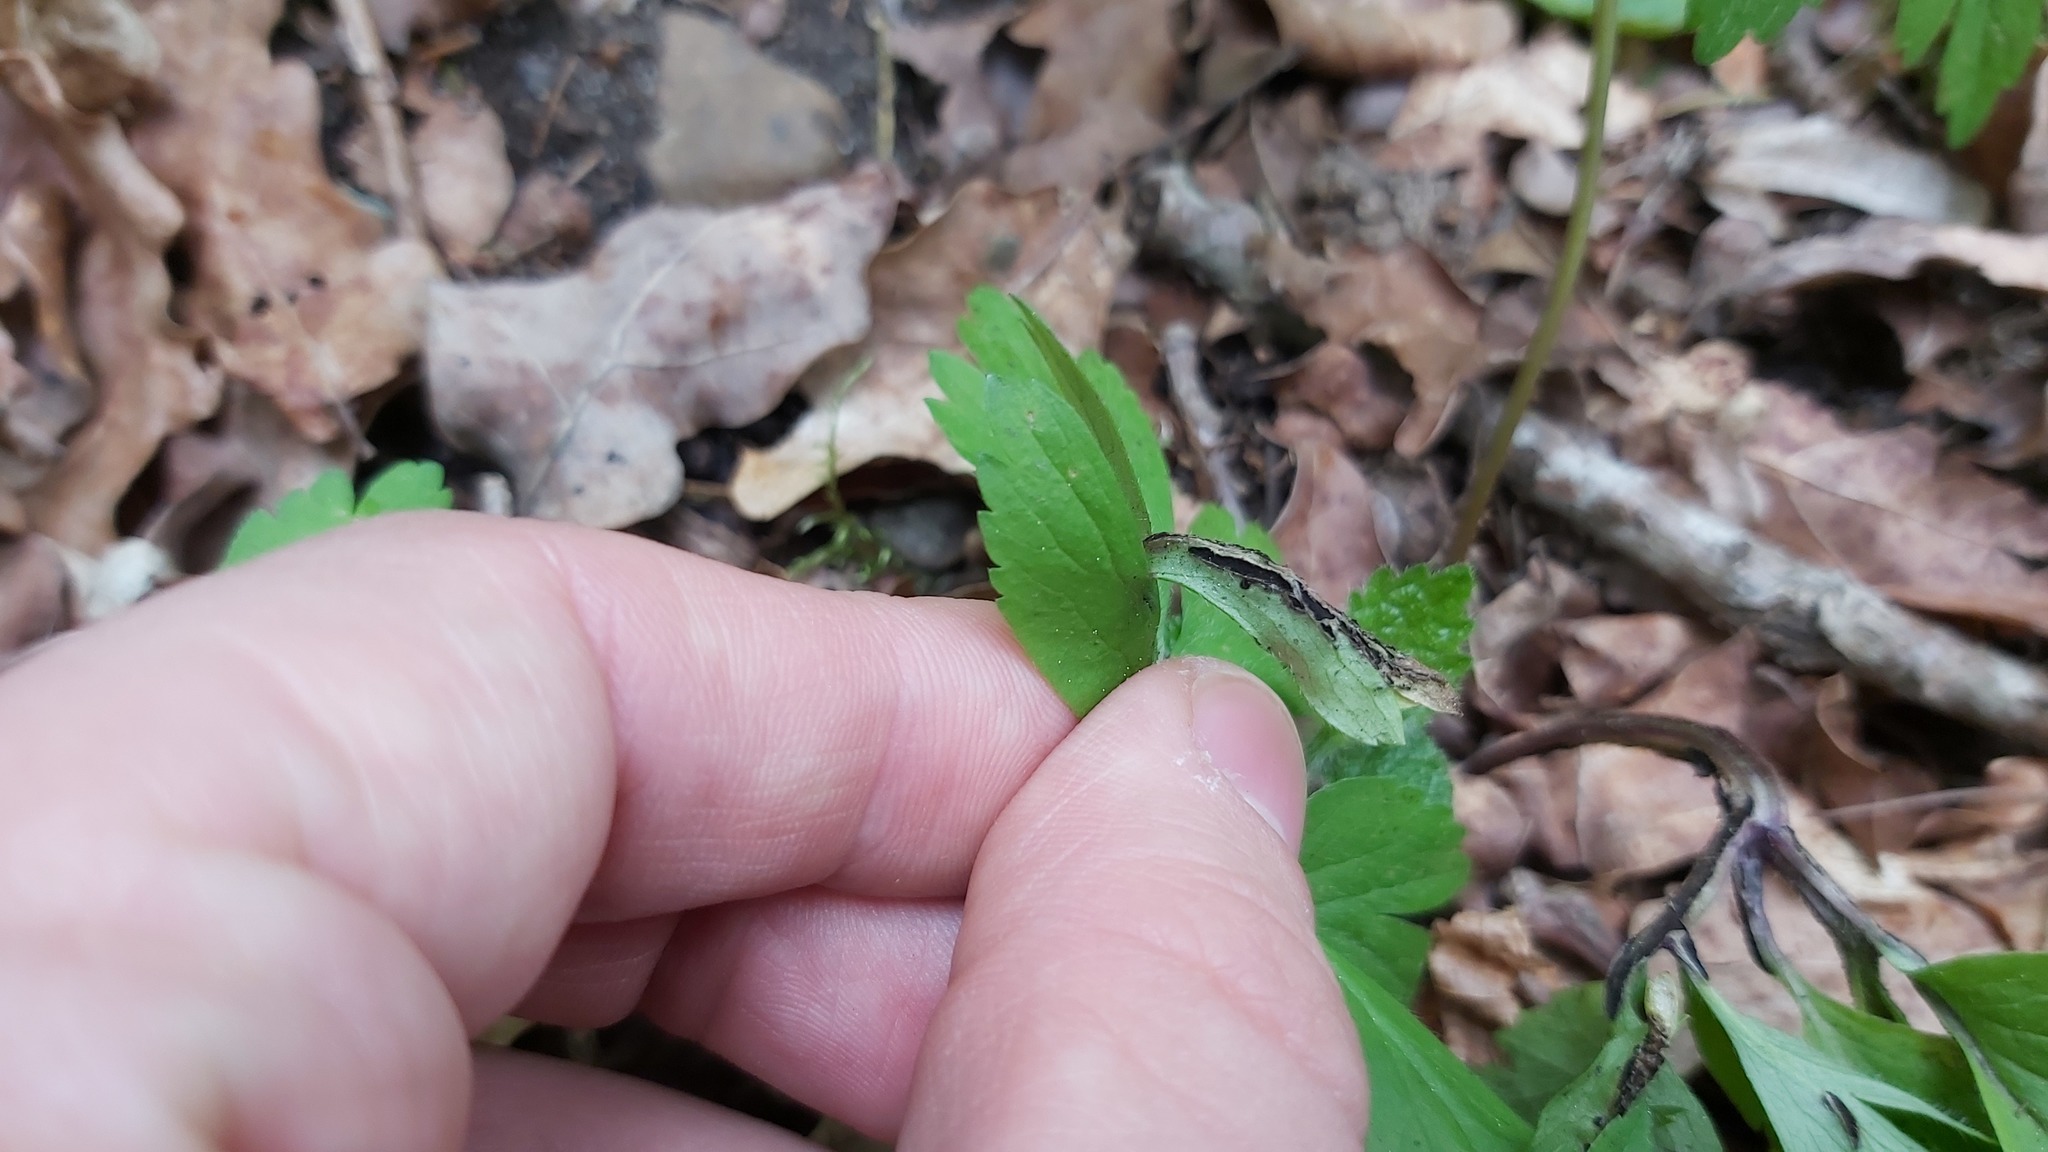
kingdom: Fungi
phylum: Basidiomycota
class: Ustilaginomycetes
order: Urocystidales
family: Urocystidaceae
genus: Urocystis
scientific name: Urocystis anemones
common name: Anemone smut
